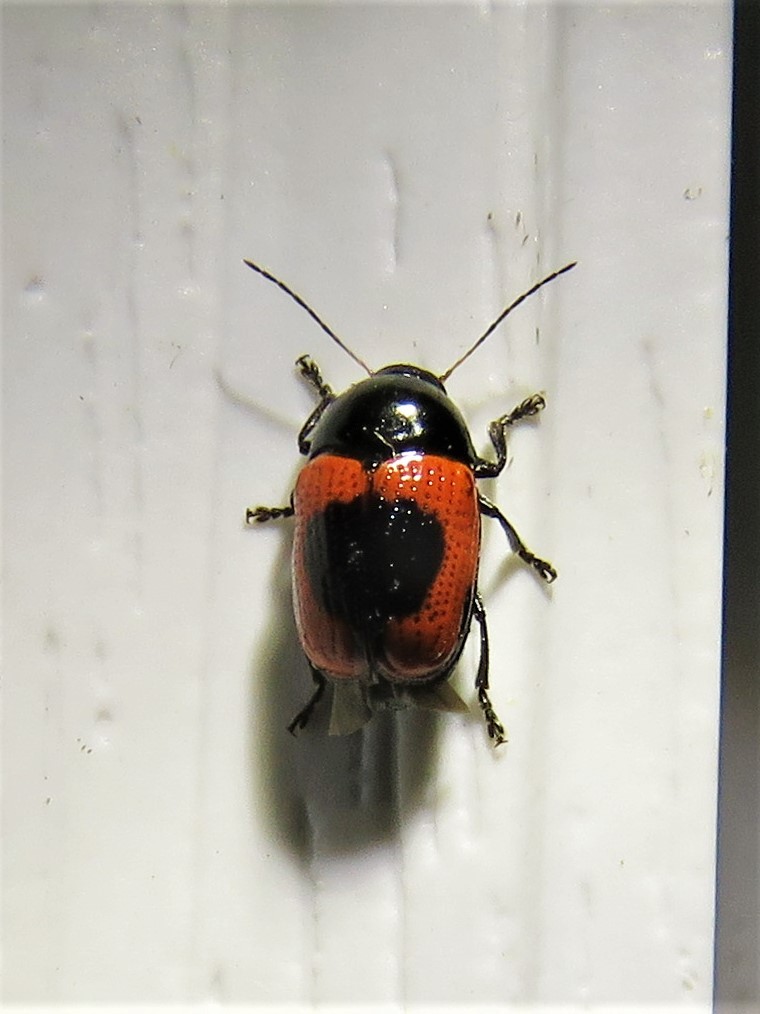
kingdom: Animalia
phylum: Arthropoda
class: Insecta
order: Coleoptera
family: Chrysomelidae
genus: Cryptocephalus
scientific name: Cryptocephalus notatus
